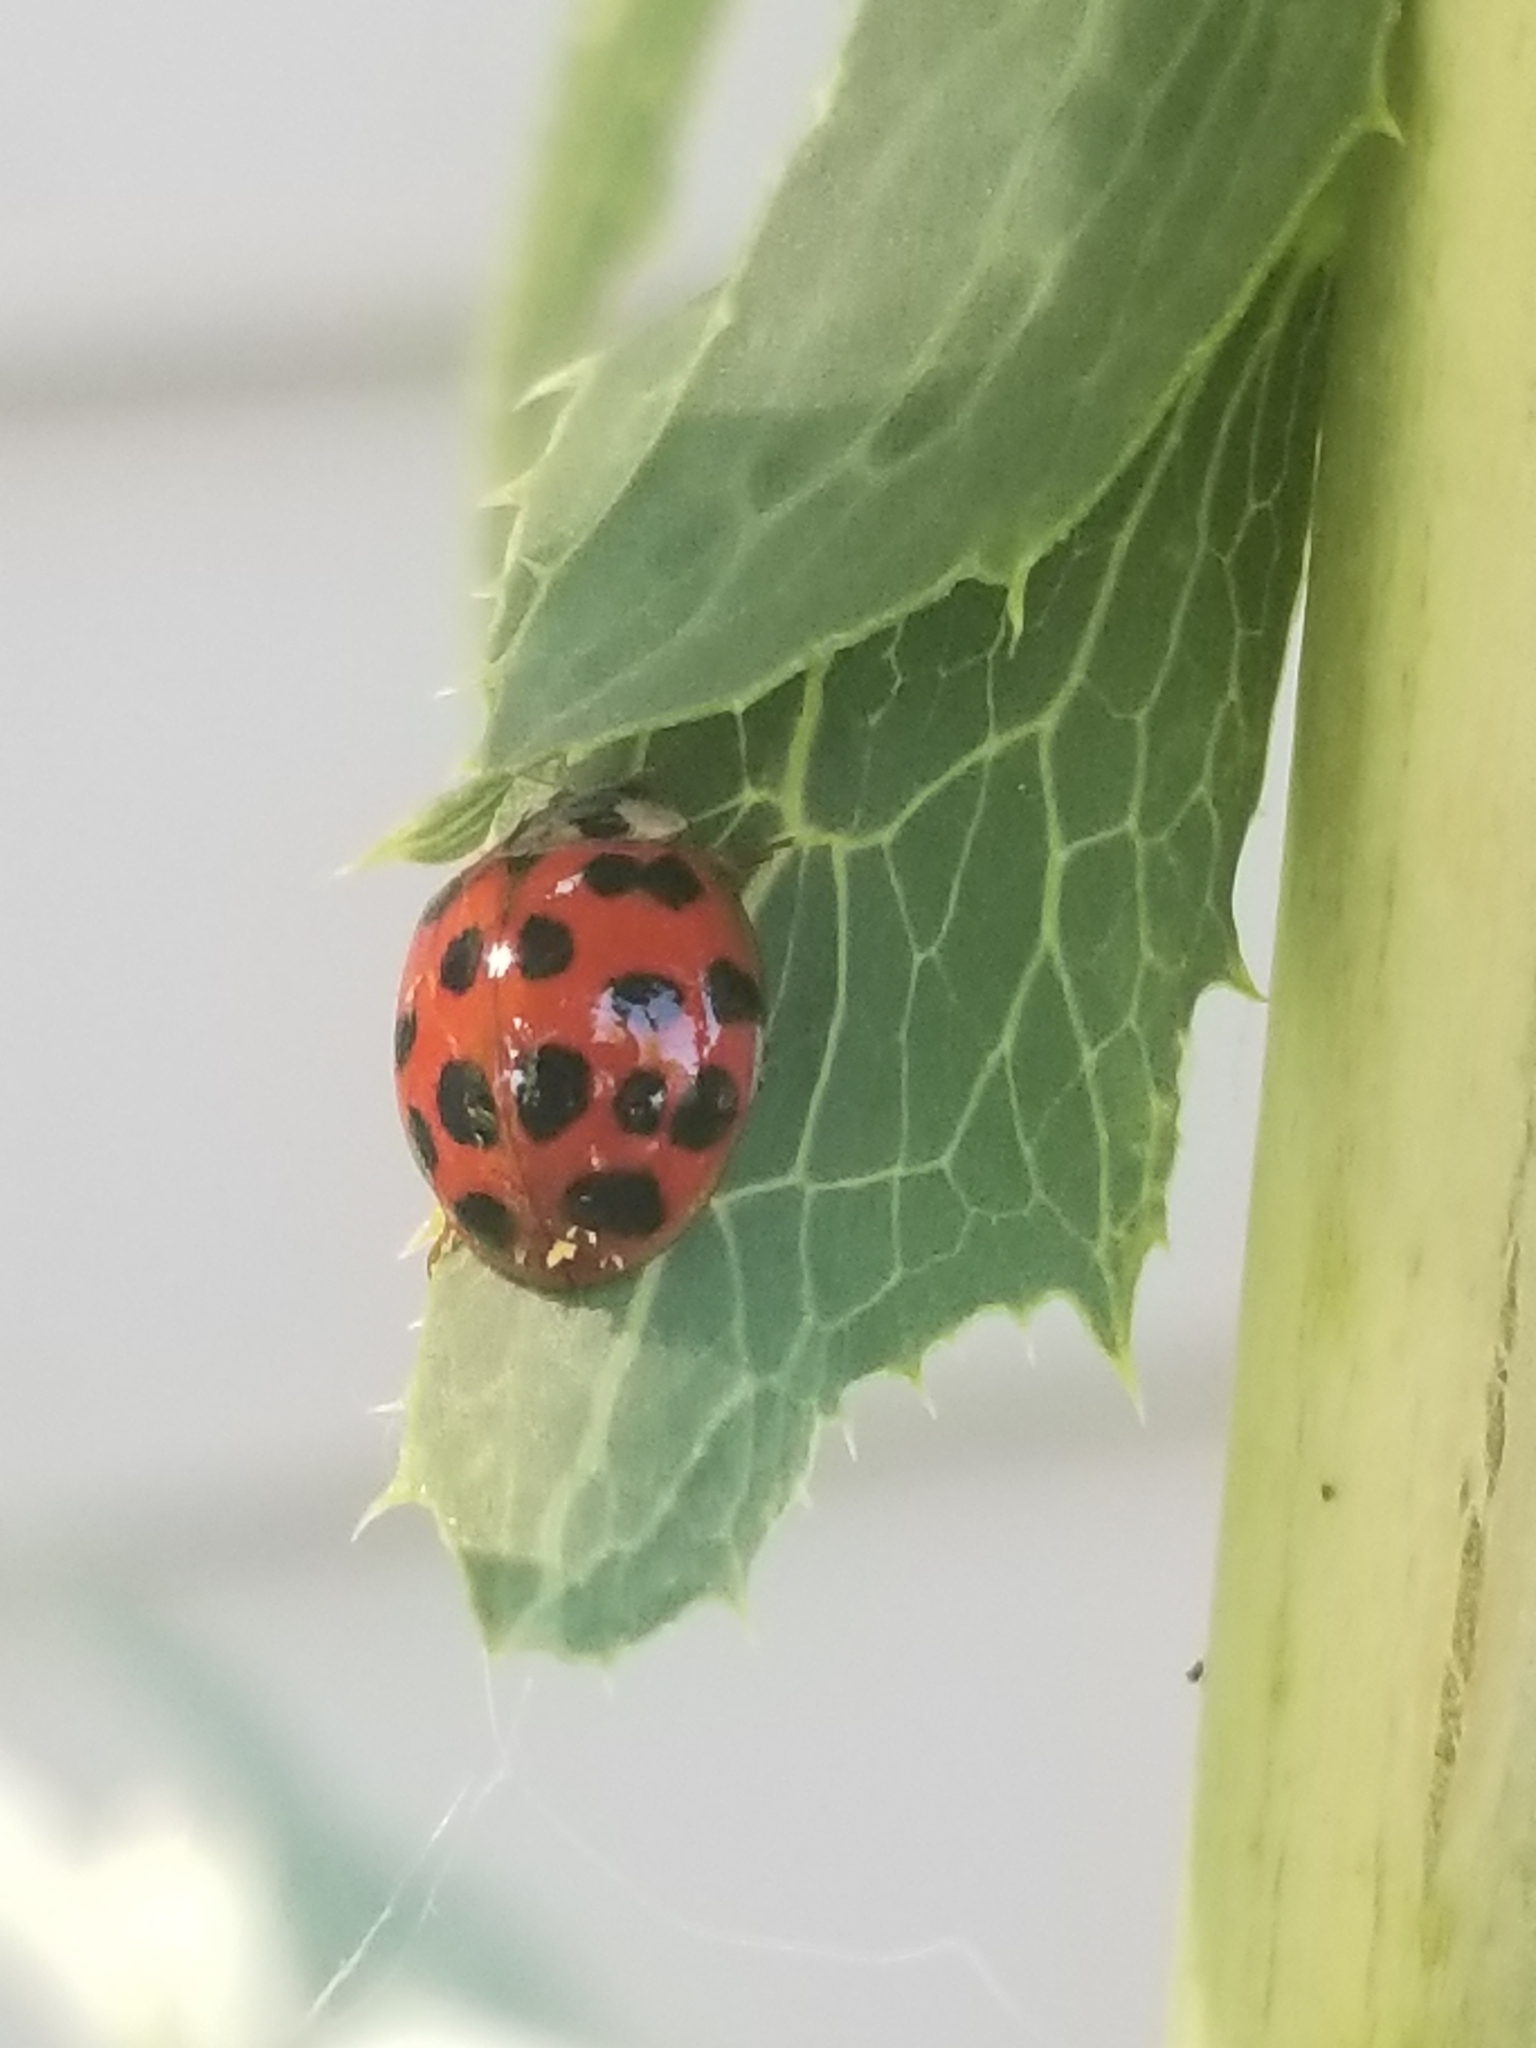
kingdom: Animalia
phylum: Arthropoda
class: Insecta
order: Coleoptera
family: Coccinellidae
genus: Harmonia
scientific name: Harmonia axyridis
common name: Harlequin ladybird
